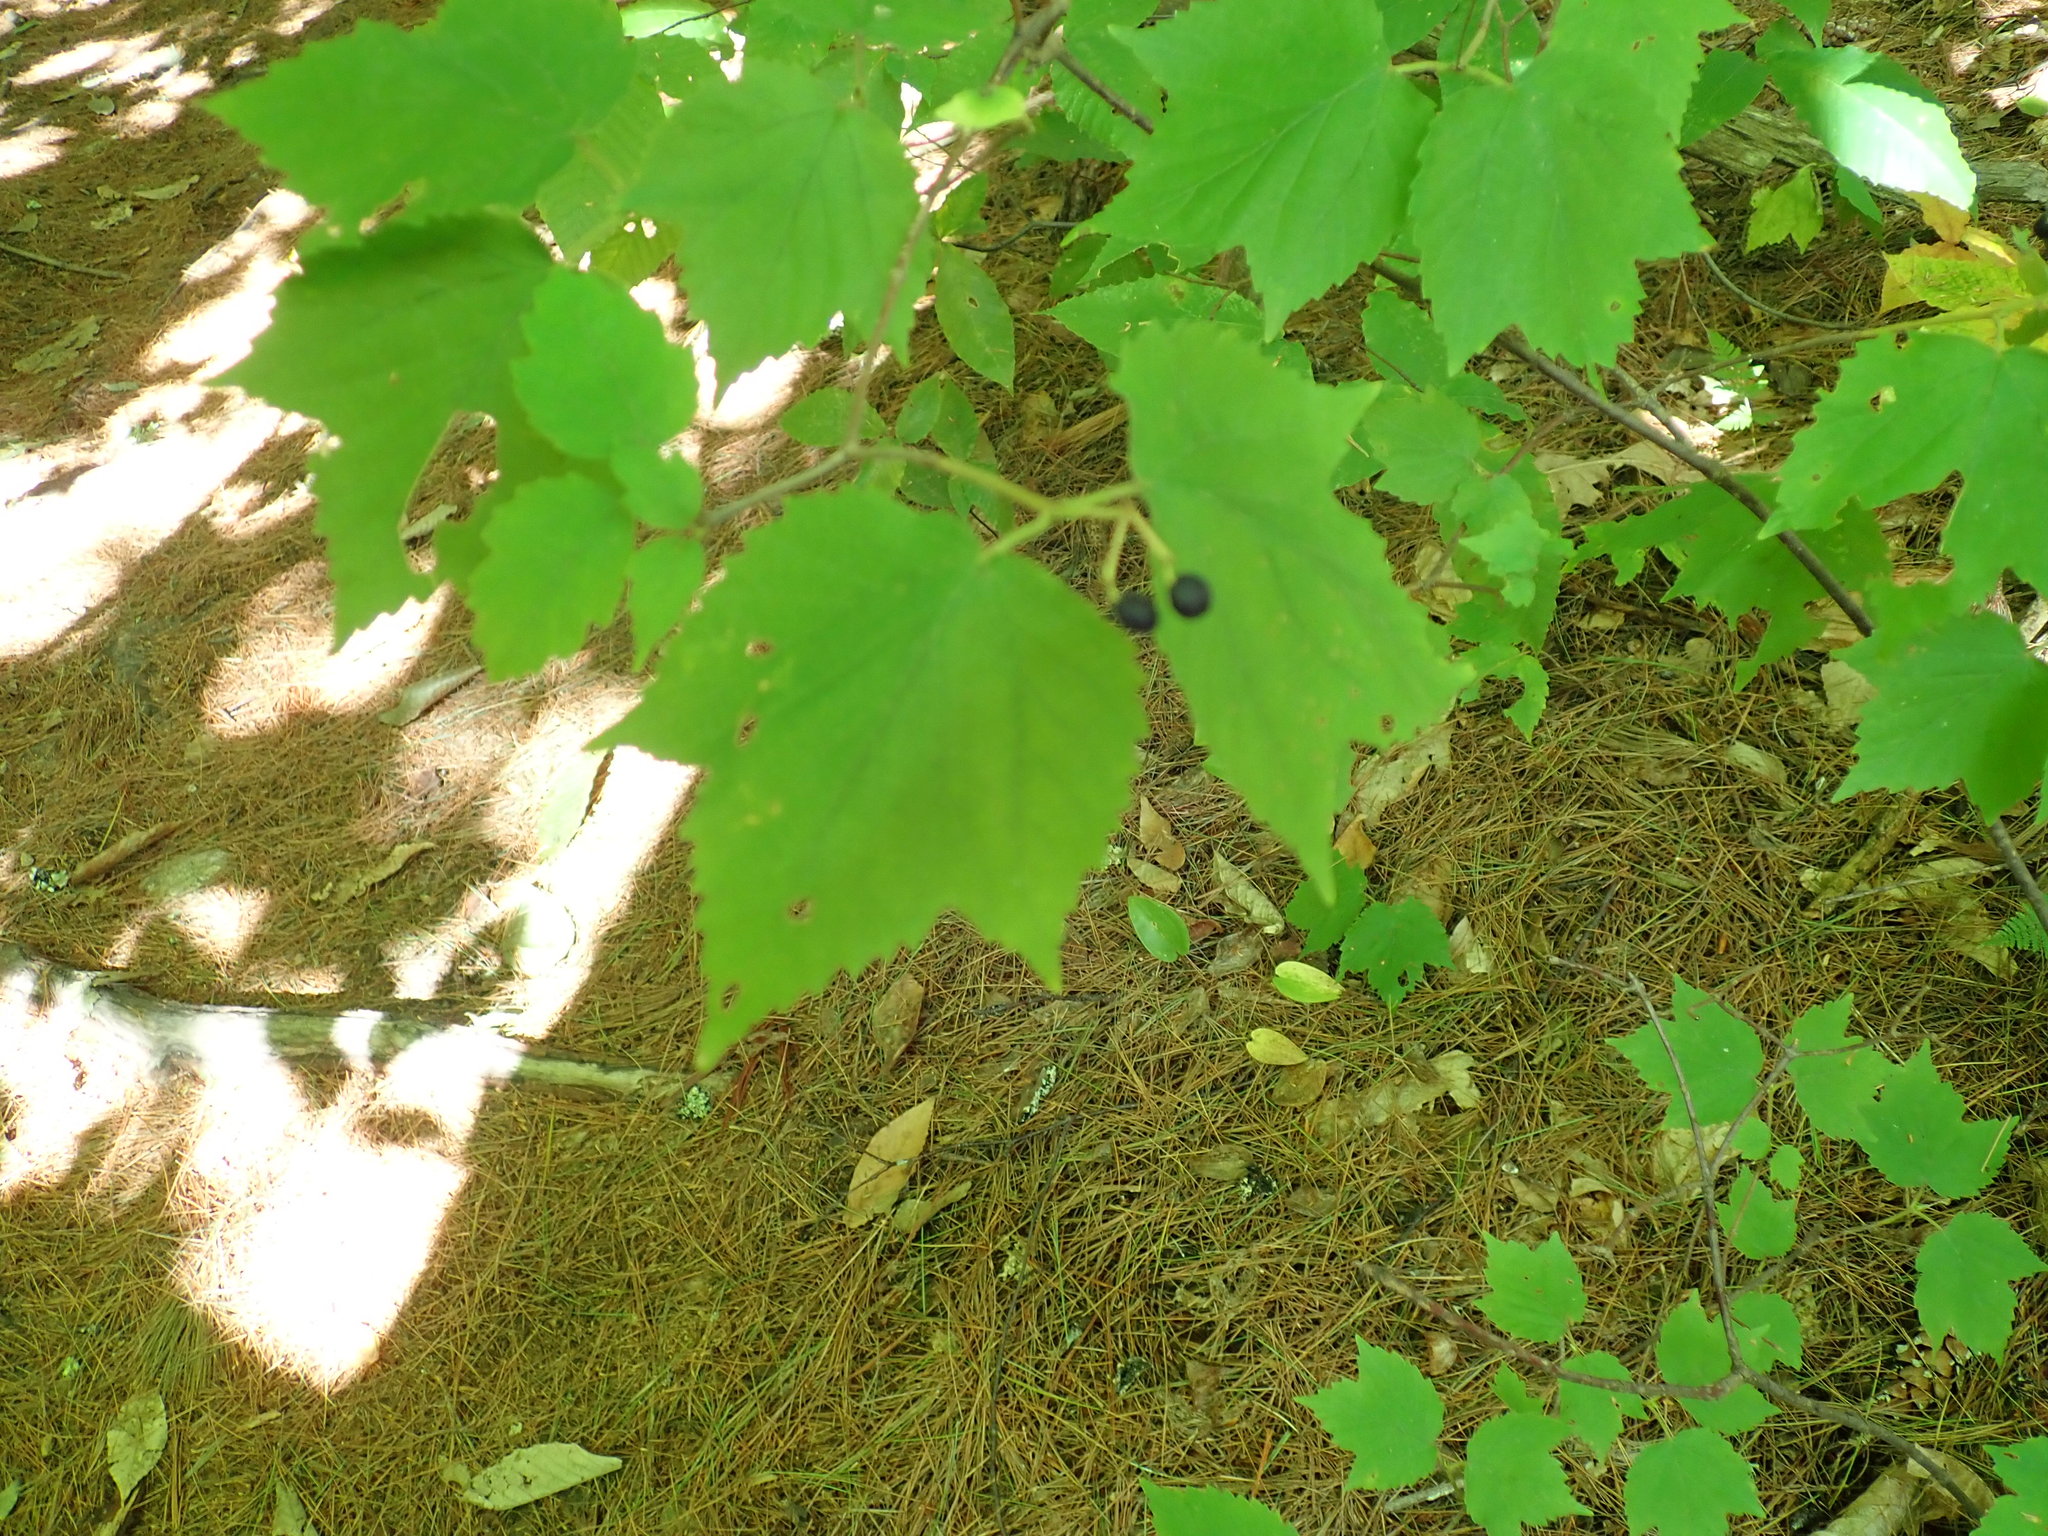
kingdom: Plantae
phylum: Tracheophyta
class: Magnoliopsida
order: Dipsacales
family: Viburnaceae
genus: Viburnum
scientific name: Viburnum acerifolium
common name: Dockmackie
